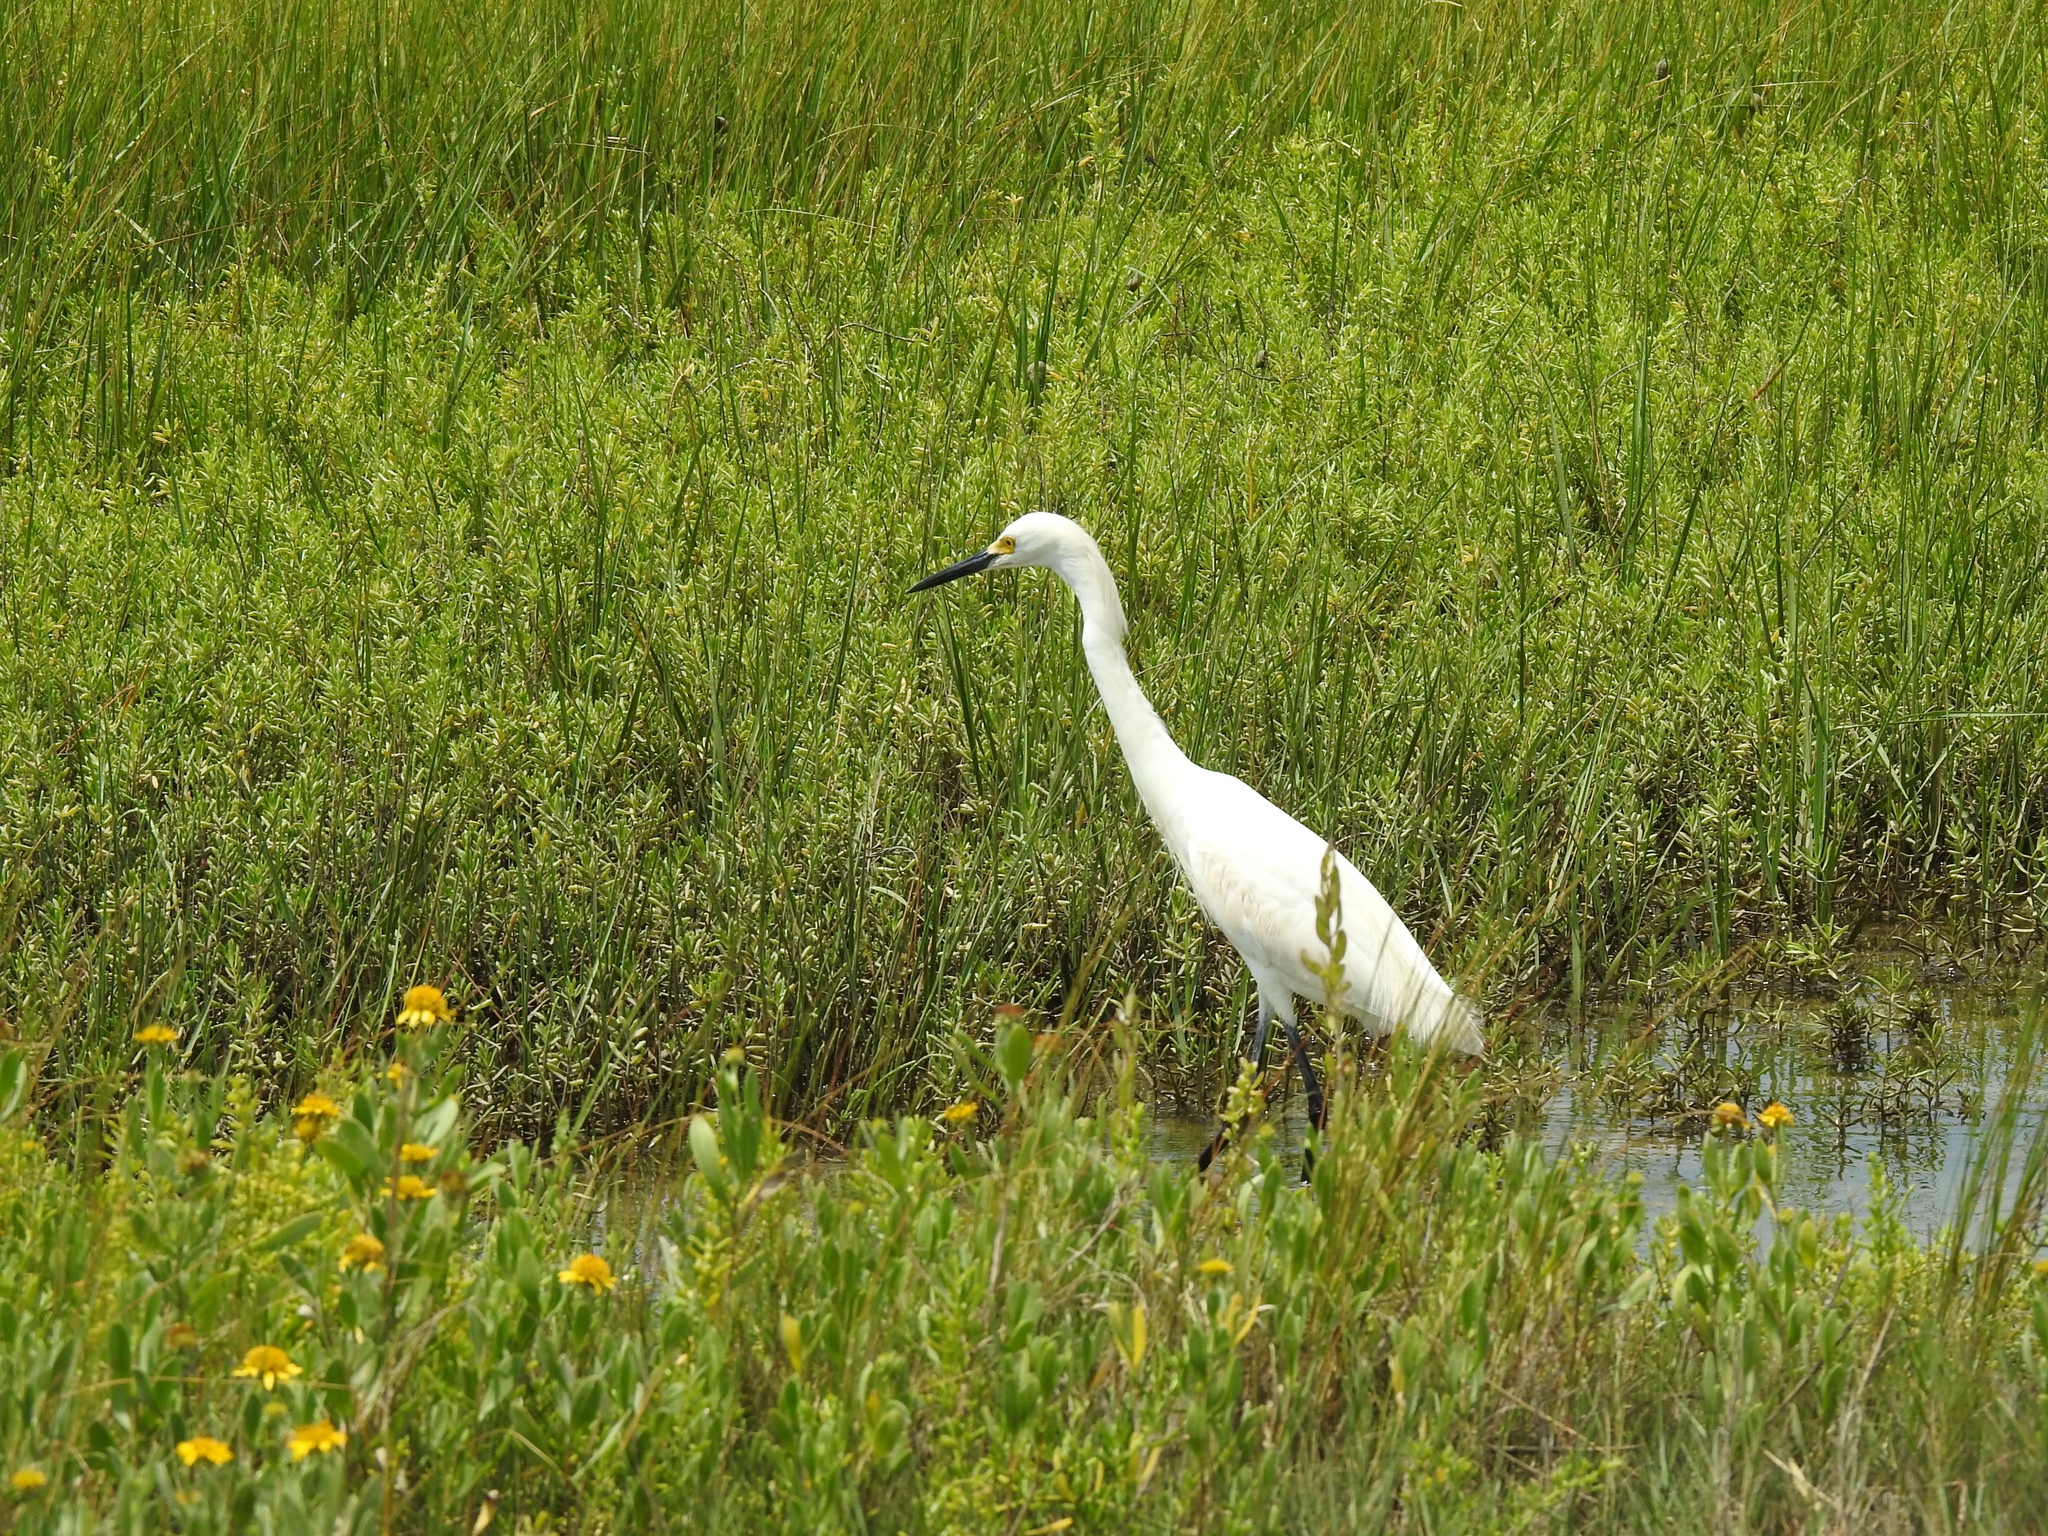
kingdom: Animalia
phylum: Chordata
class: Aves
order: Pelecaniformes
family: Ardeidae
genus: Egretta
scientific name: Egretta thula
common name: Snowy egret
